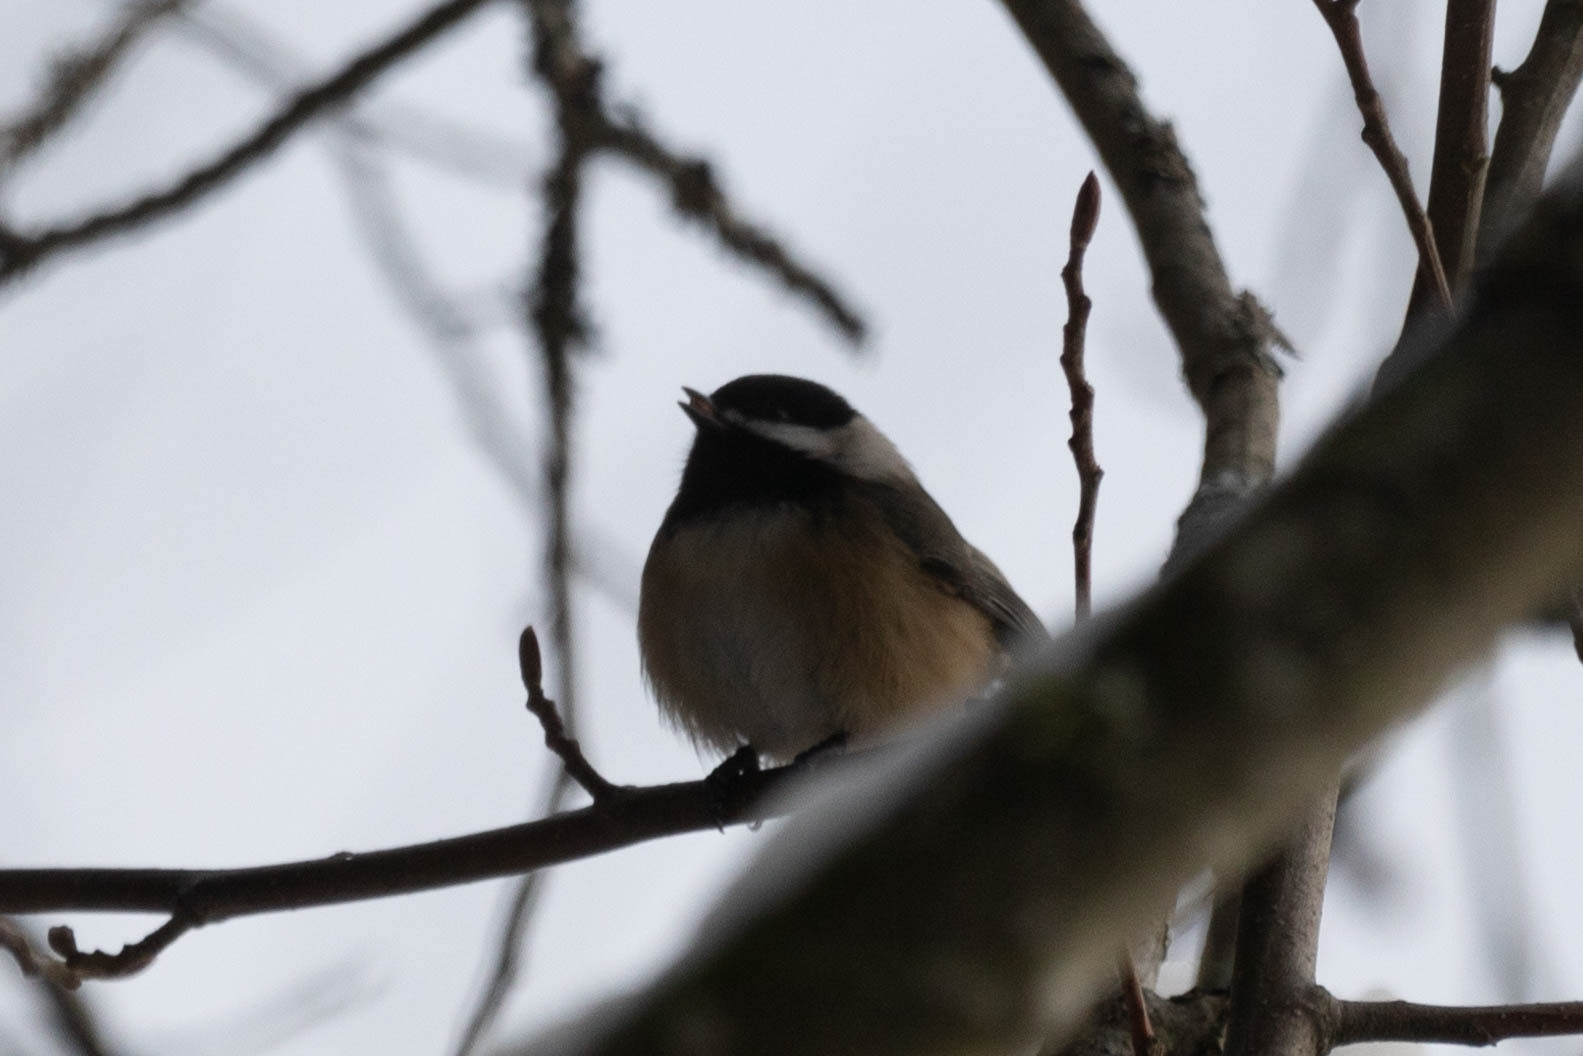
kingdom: Animalia
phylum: Chordata
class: Aves
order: Passeriformes
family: Paridae
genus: Poecile
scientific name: Poecile atricapillus
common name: Black-capped chickadee
